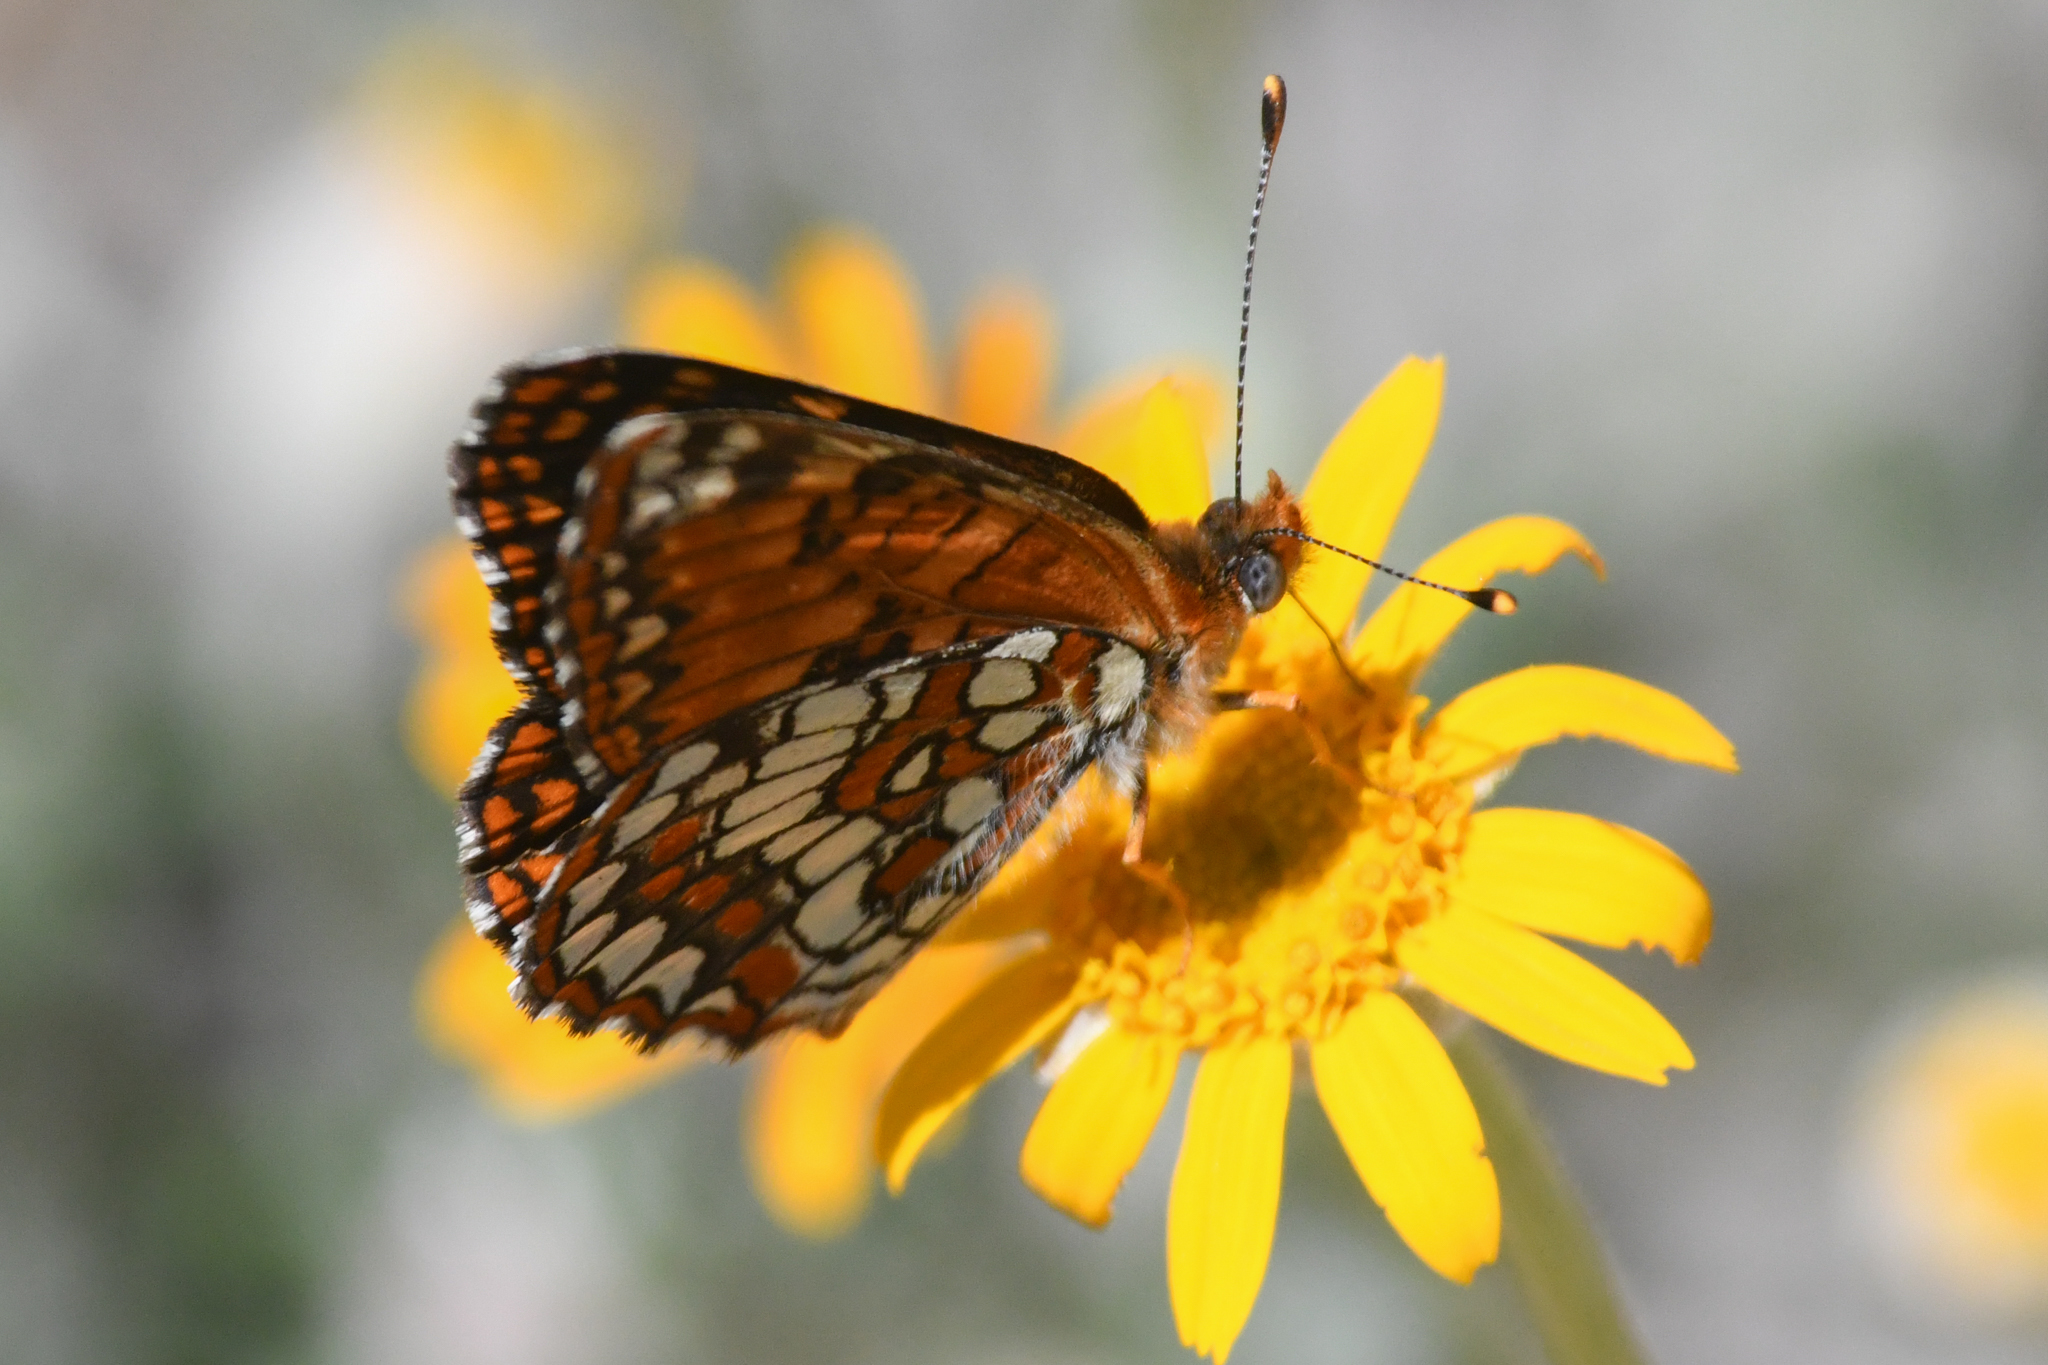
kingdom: Animalia
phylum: Arthropoda
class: Insecta
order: Lepidoptera
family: Nymphalidae
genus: Chlosyne
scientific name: Chlosyne palla
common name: Northern checkerspot
